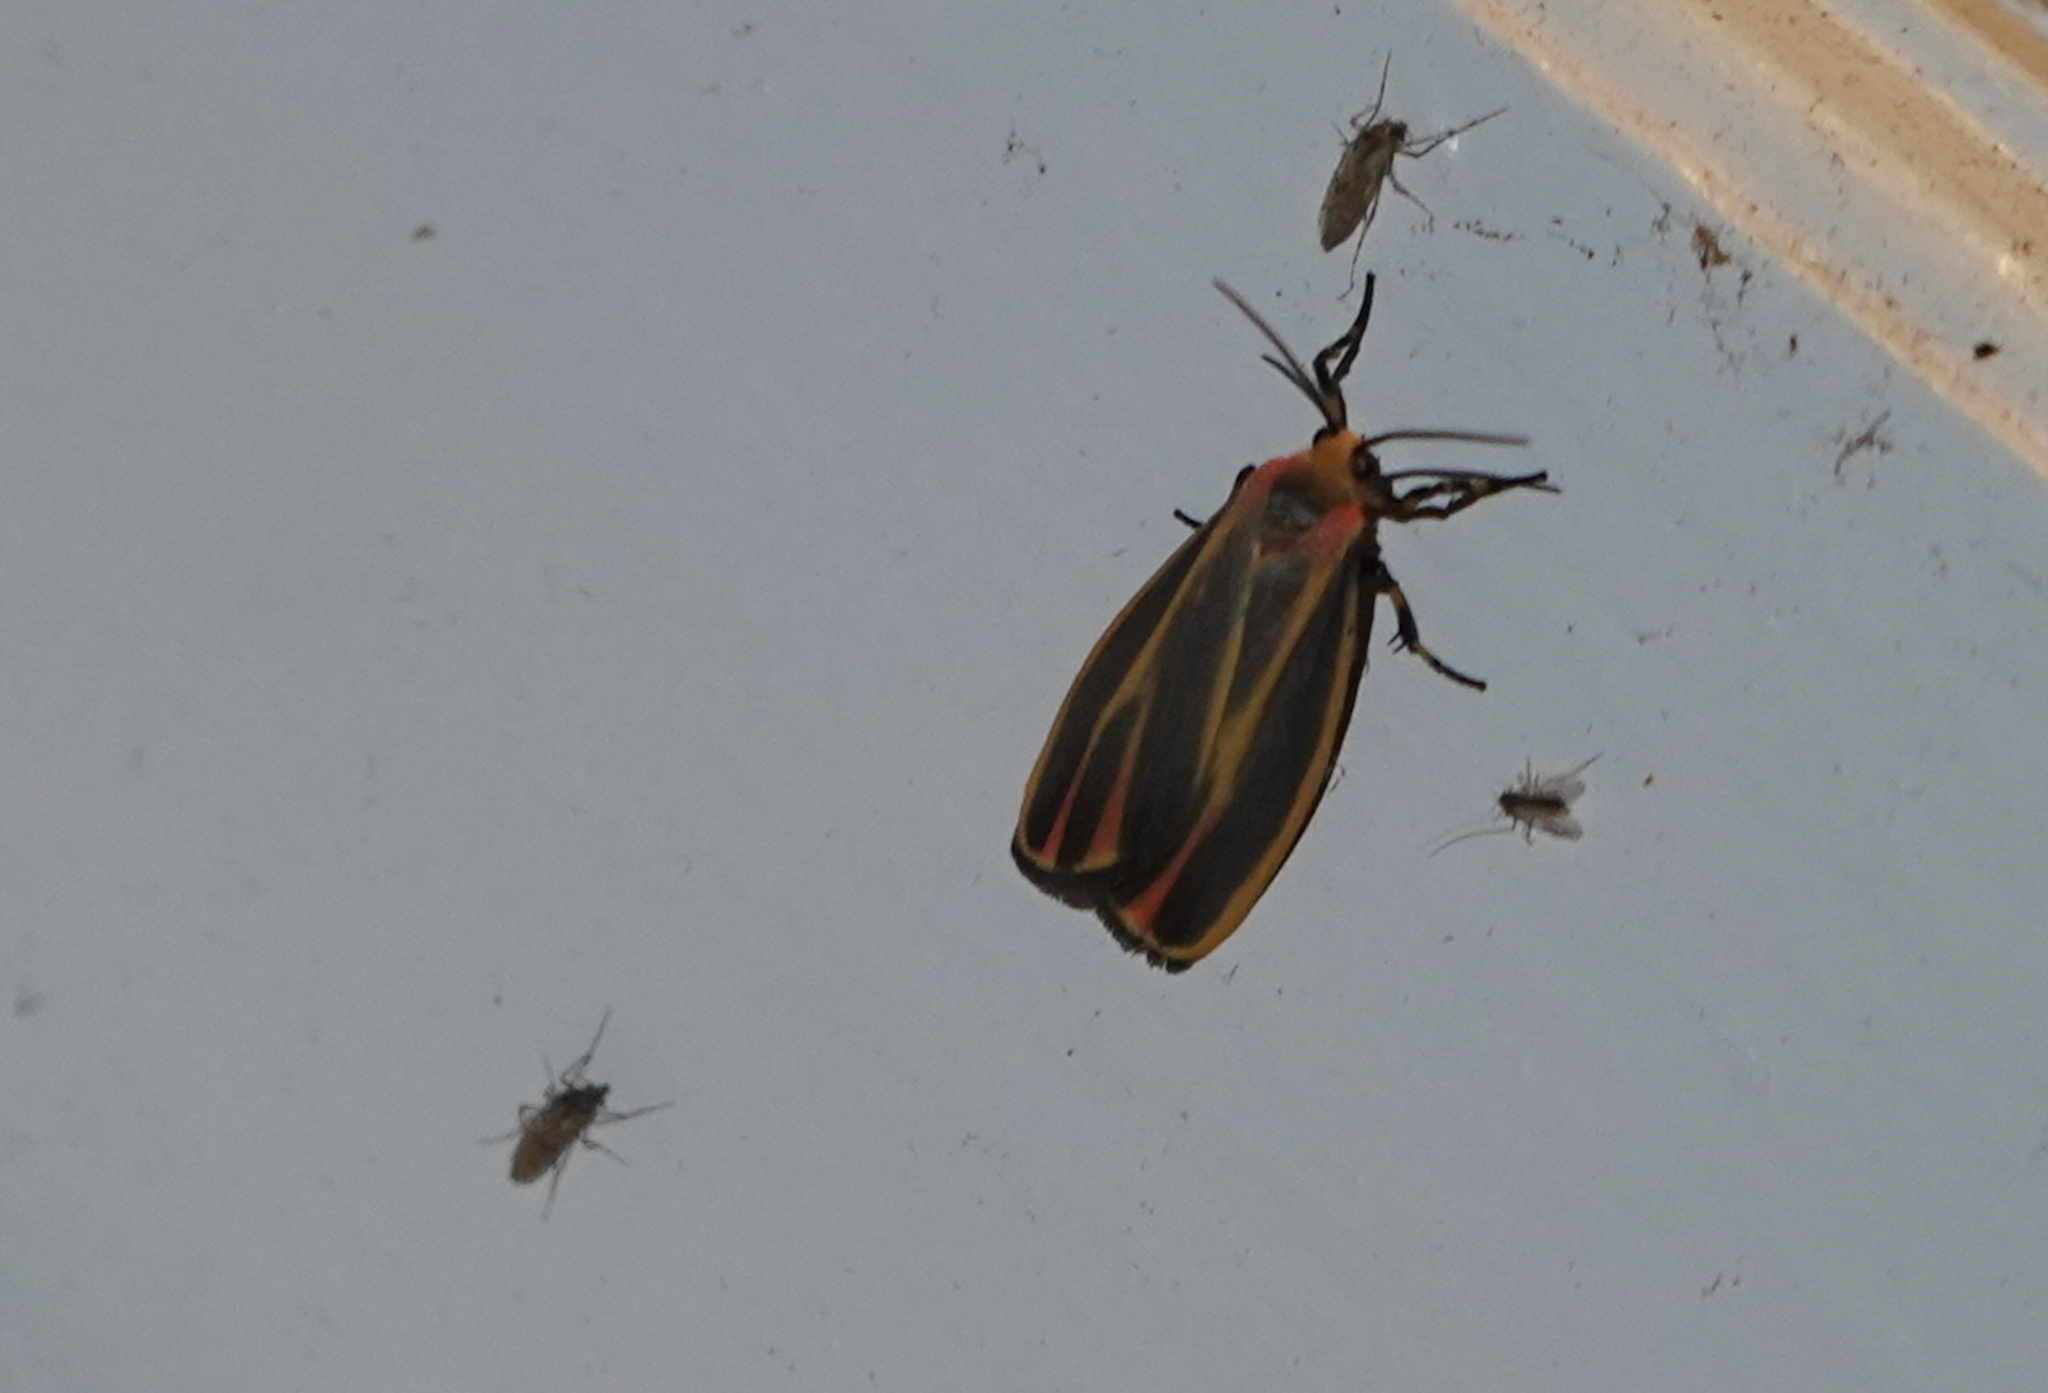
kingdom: Animalia
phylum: Arthropoda
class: Insecta
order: Lepidoptera
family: Erebidae
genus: Hypoprepia
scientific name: Hypoprepia fucosa
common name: Painted lichen moth
